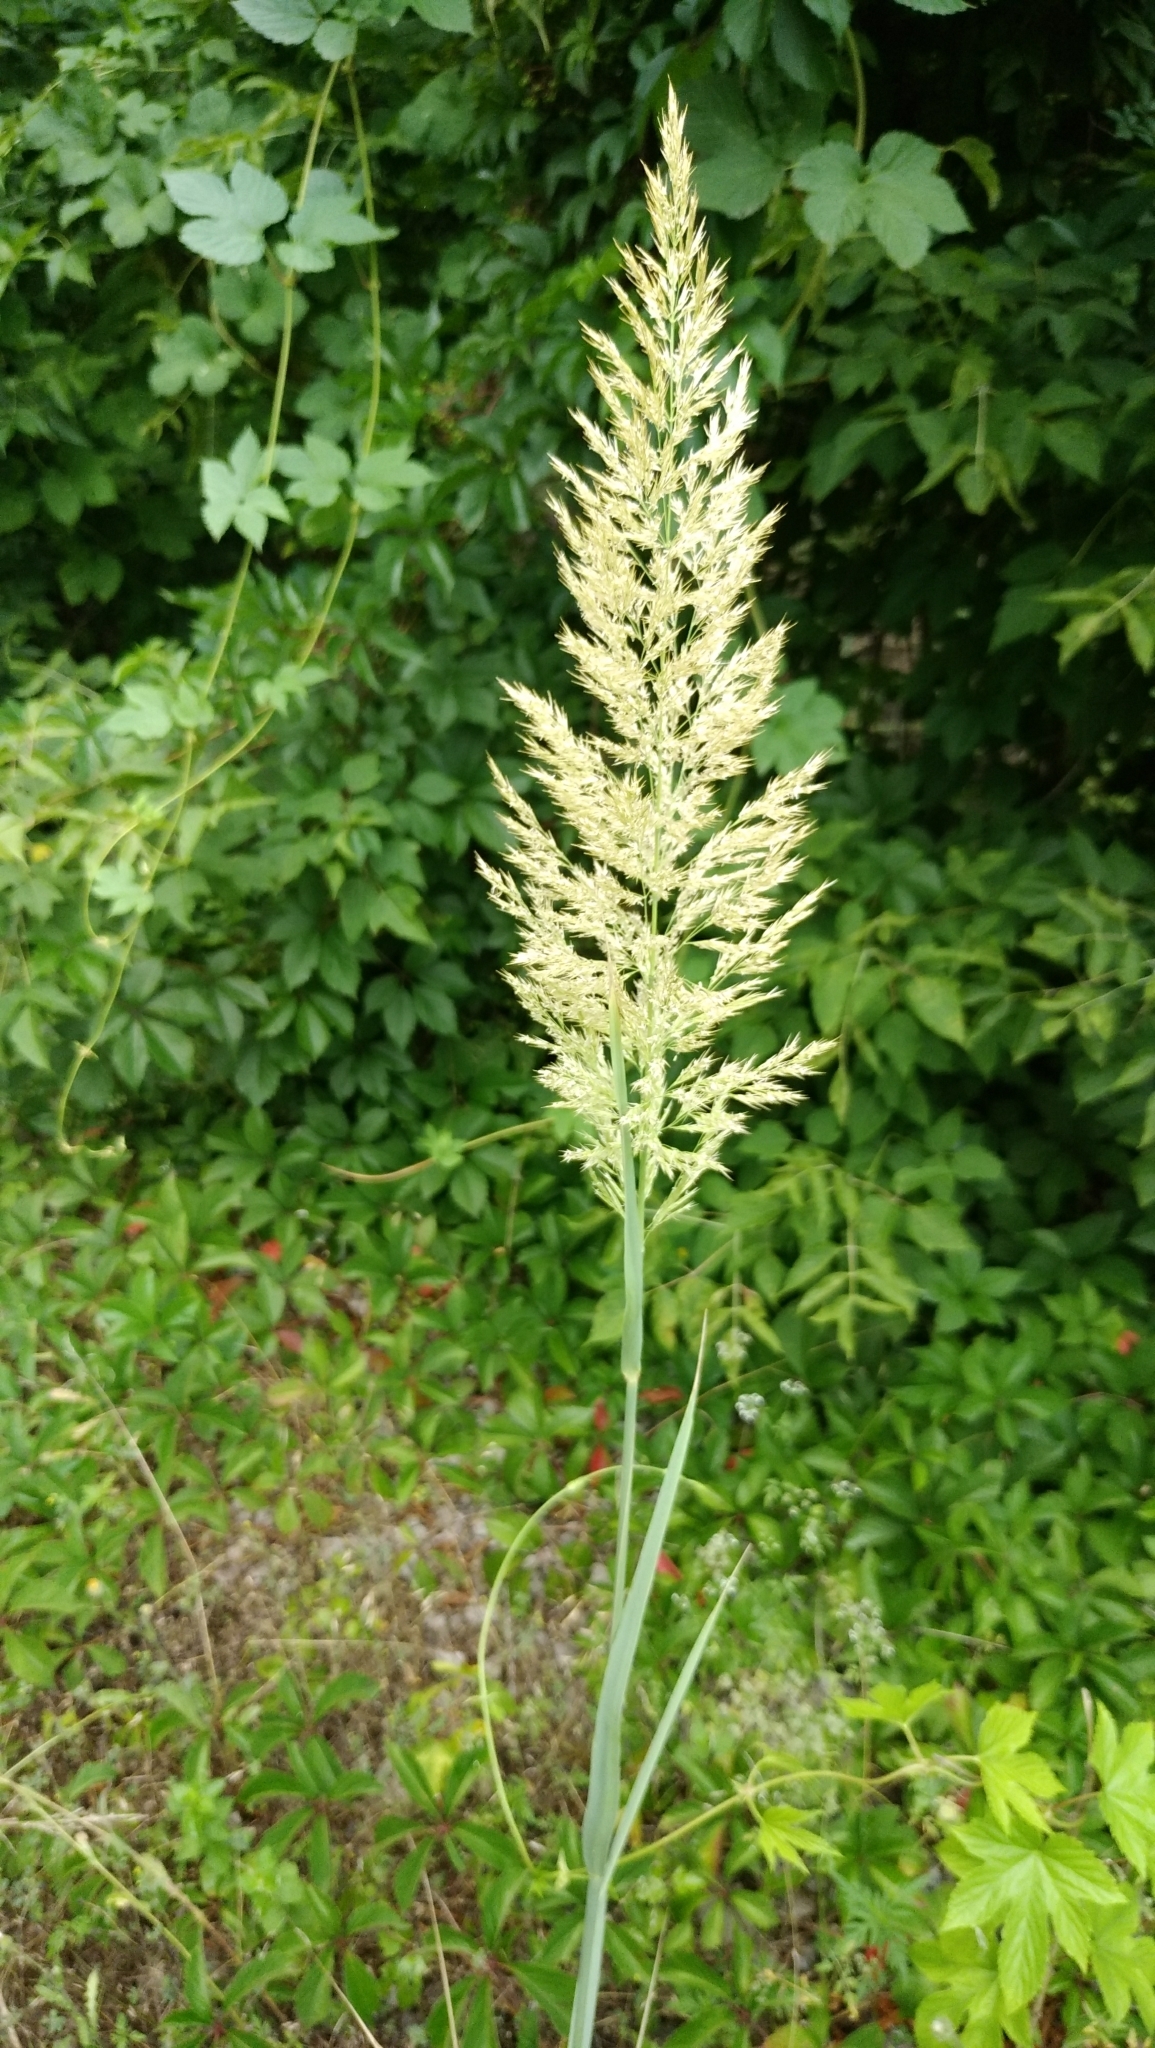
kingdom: Plantae
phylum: Tracheophyta
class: Liliopsida
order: Poales
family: Poaceae
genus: Calamagrostis
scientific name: Calamagrostis epigejos
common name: Wood small-reed
